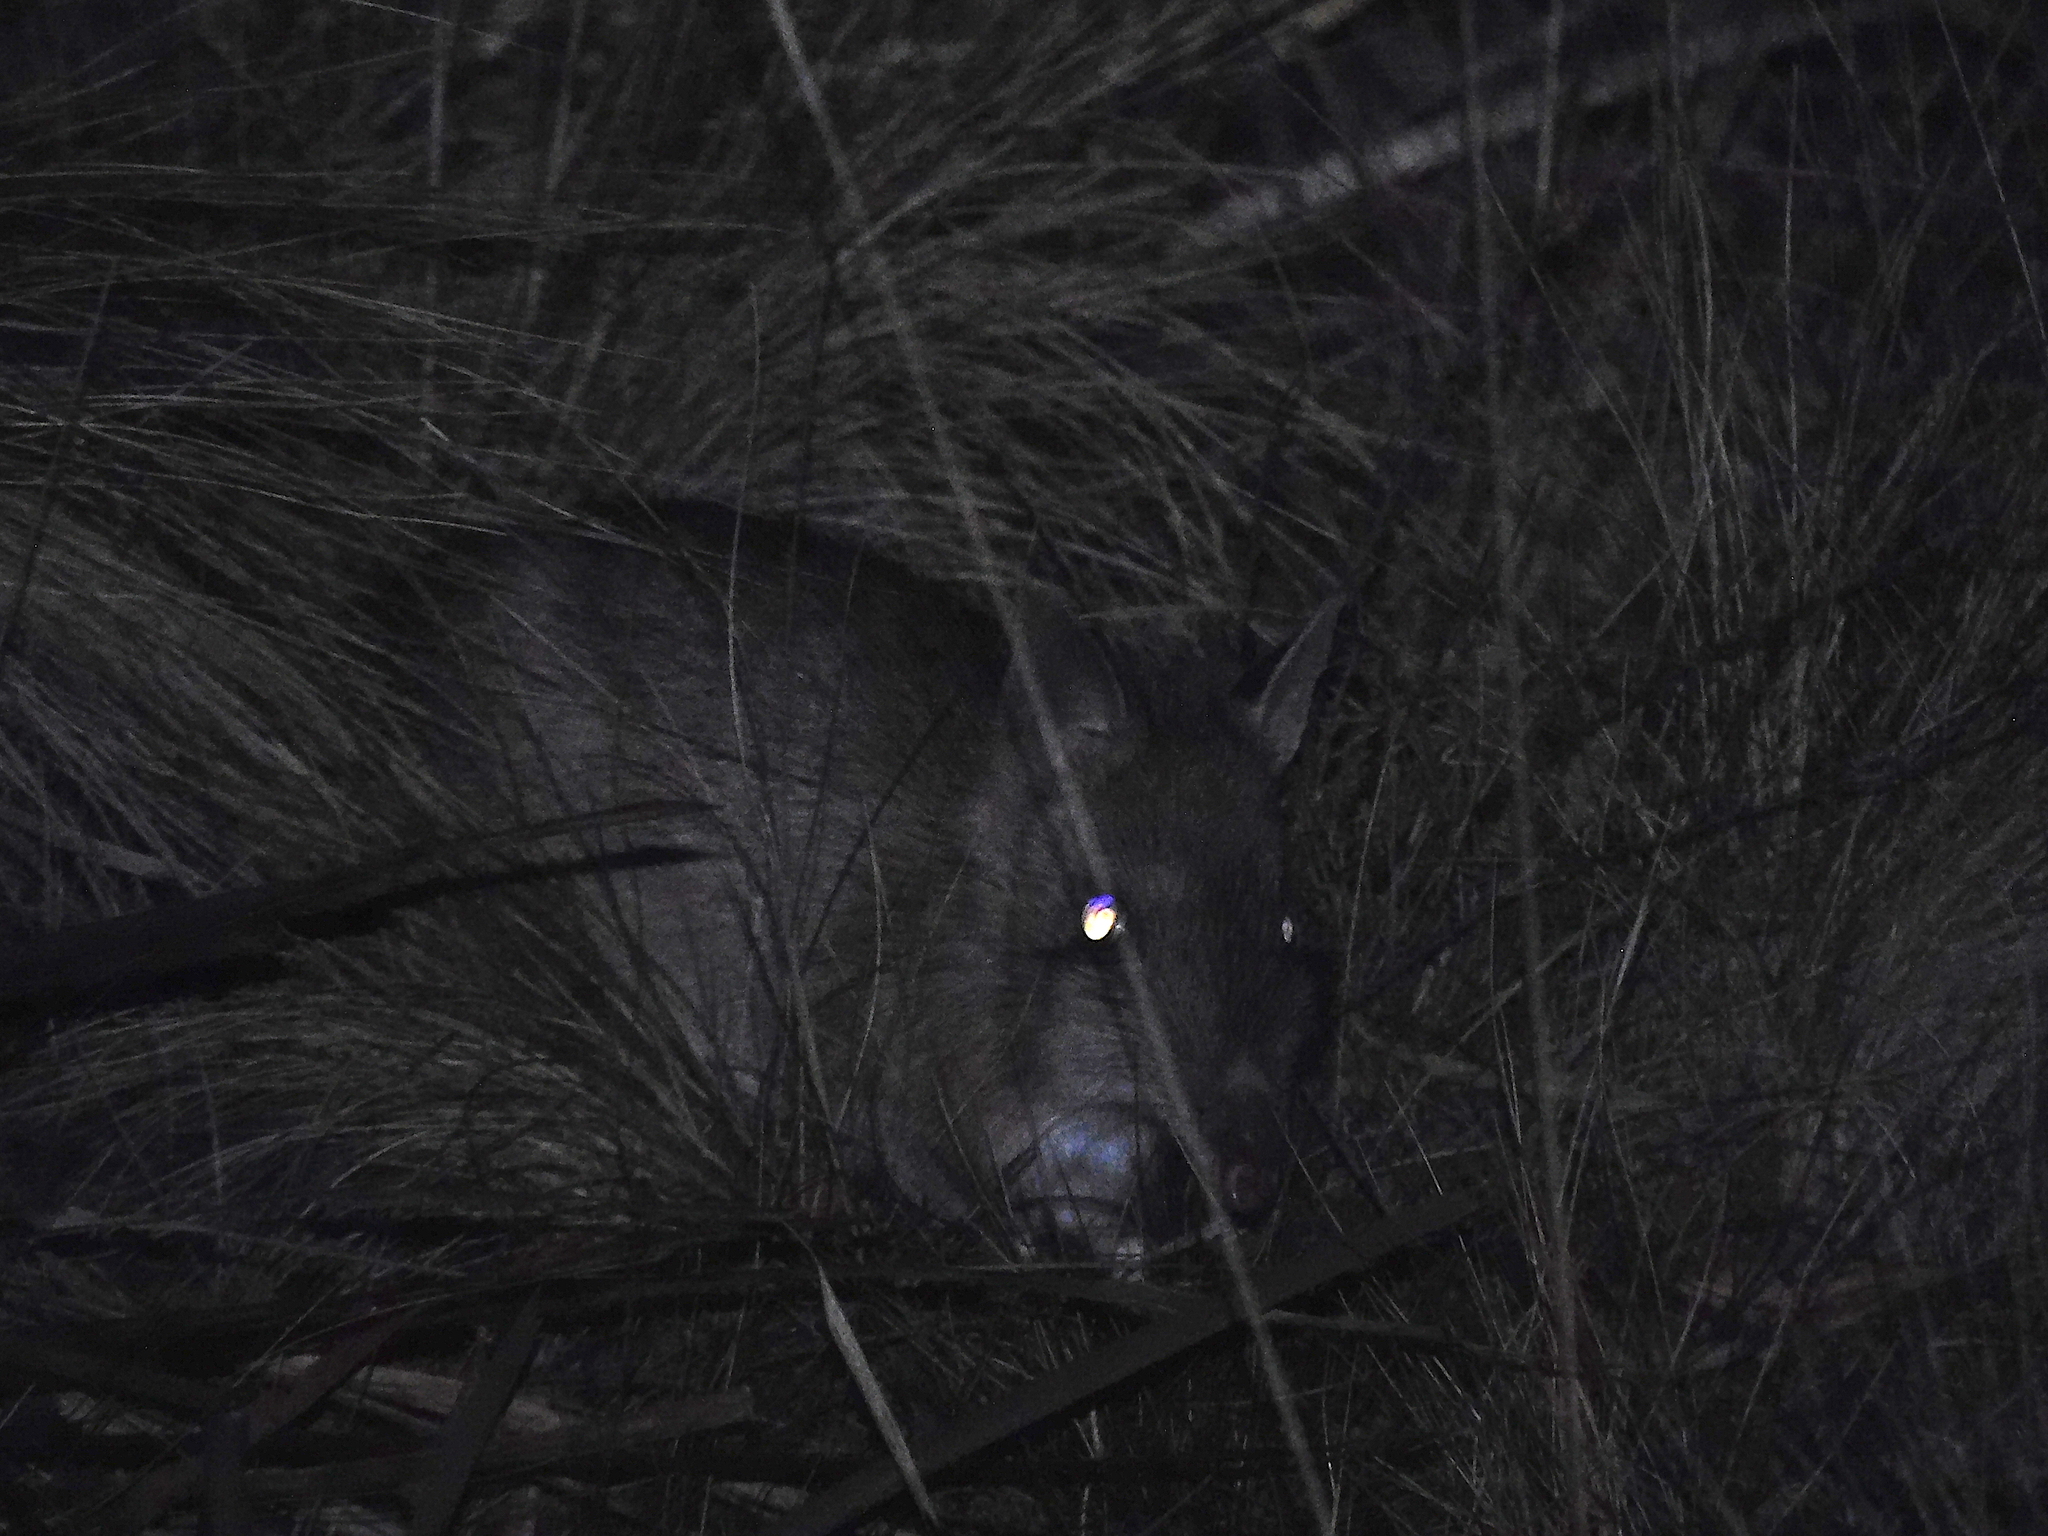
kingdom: Animalia
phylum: Chordata
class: Mammalia
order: Peramelemorphia
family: Peramelidae
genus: Perameles
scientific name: Perameles gunnii
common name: Eastern barred bandicoot
